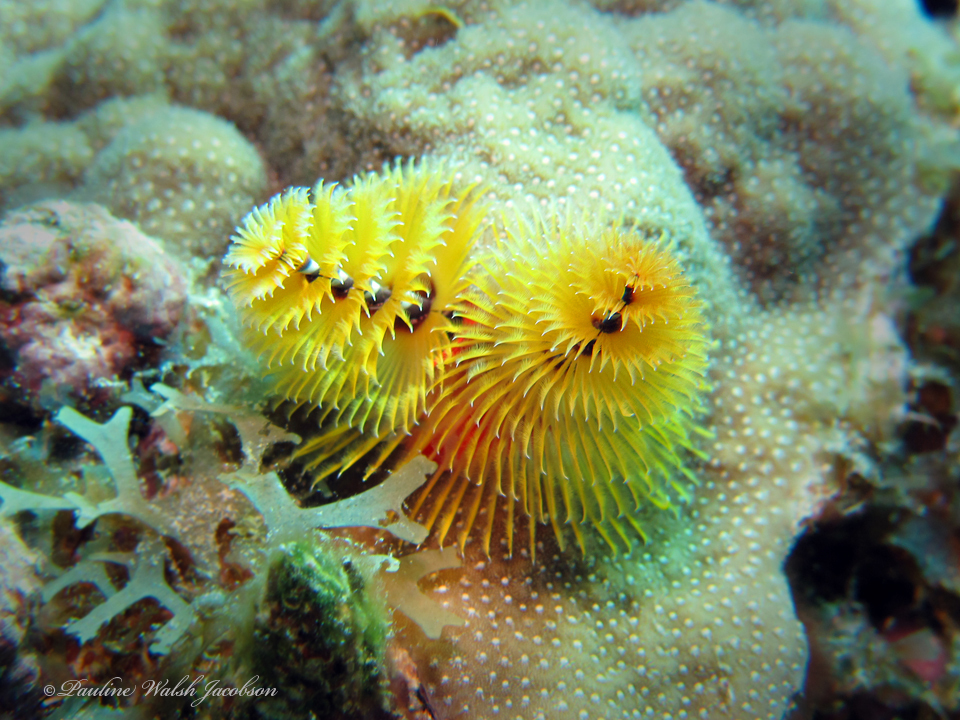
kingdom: Animalia
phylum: Annelida
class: Polychaeta
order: Sabellida
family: Serpulidae
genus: Spirobranchus
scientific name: Spirobranchus giganteus
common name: Christmas tree worm
